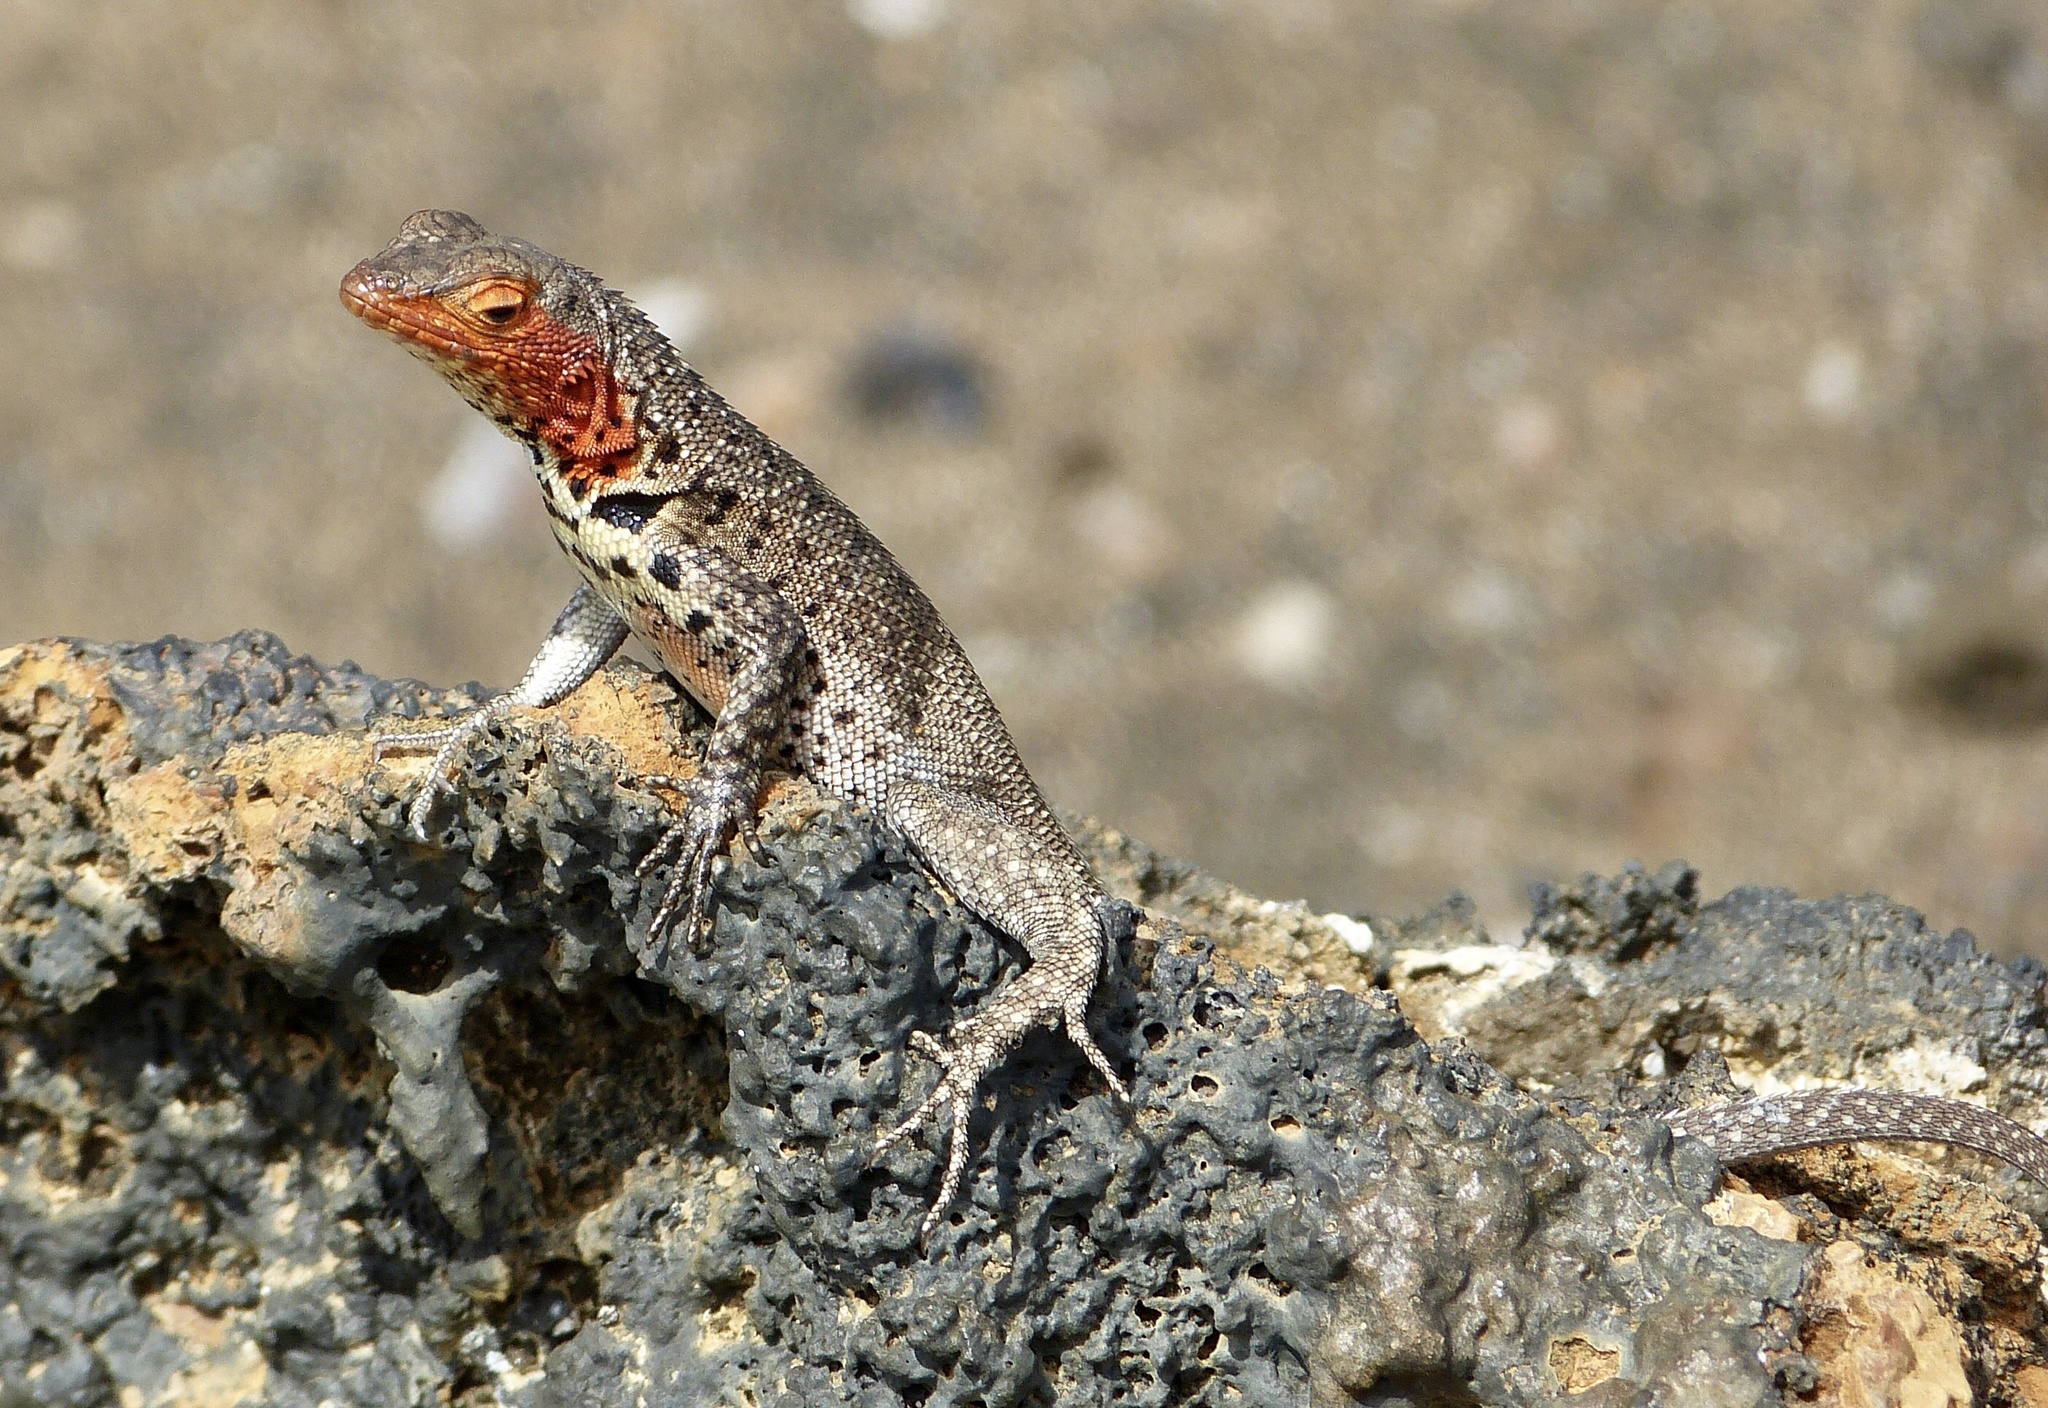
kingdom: Animalia
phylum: Chordata
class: Squamata
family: Tropiduridae
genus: Microlophus
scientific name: Microlophus jacobii
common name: Santiago lava lizard
